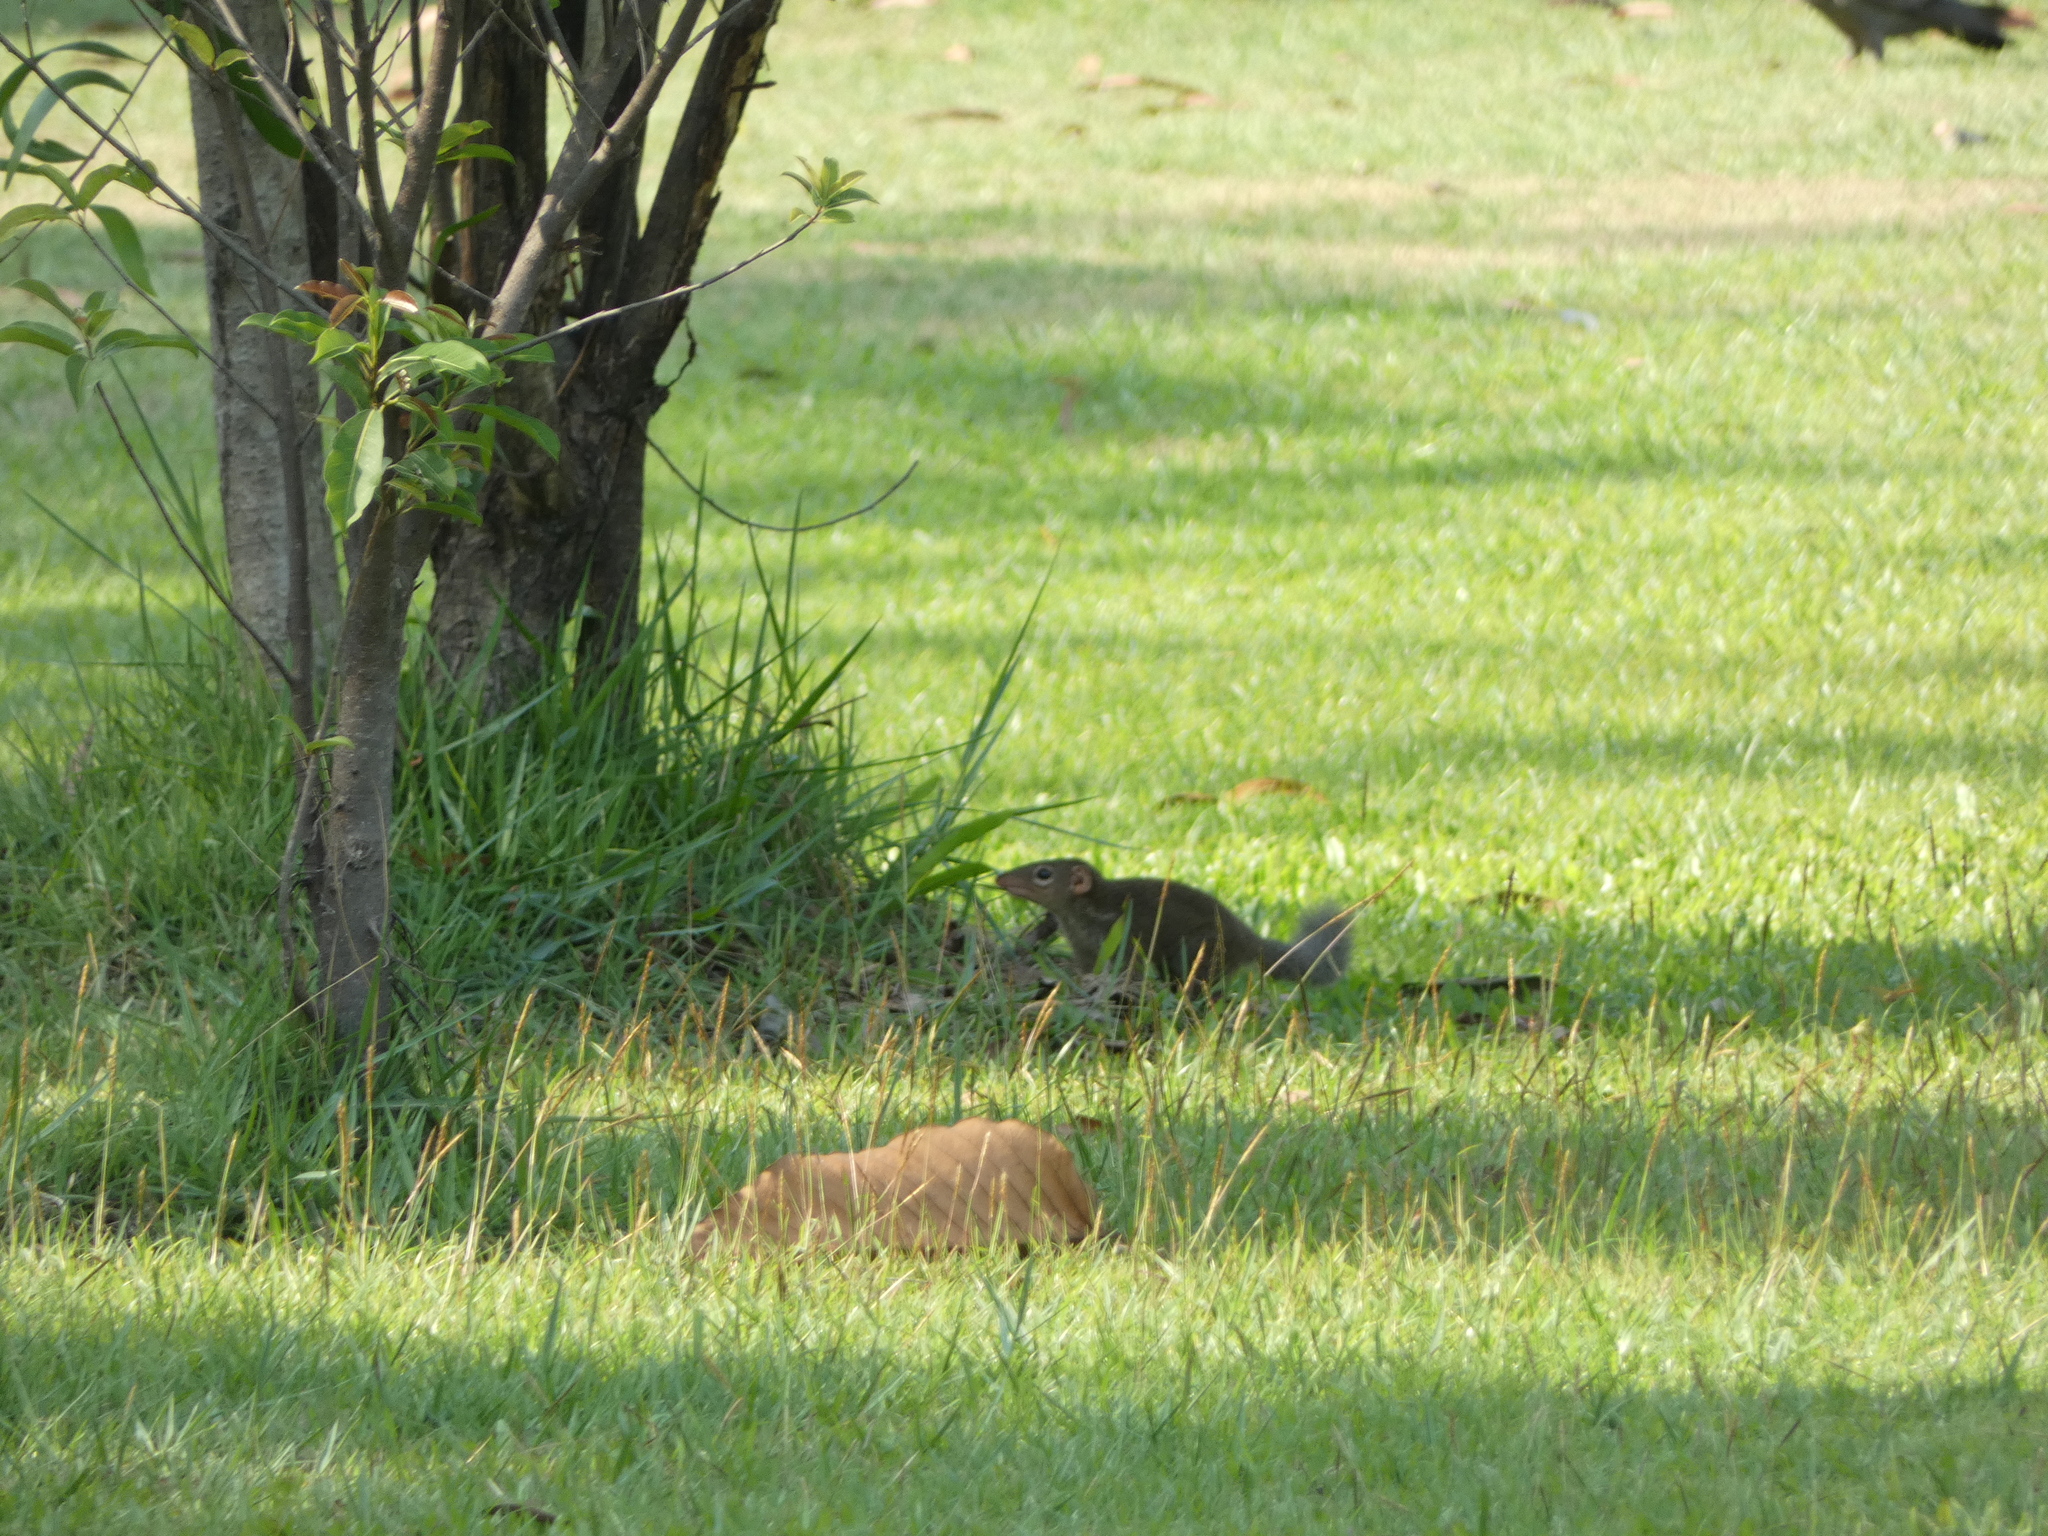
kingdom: Animalia
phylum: Chordata
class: Mammalia
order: Scandentia
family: Tupaiidae
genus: Tupaia
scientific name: Tupaia belangeri
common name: Northern treeshrew
